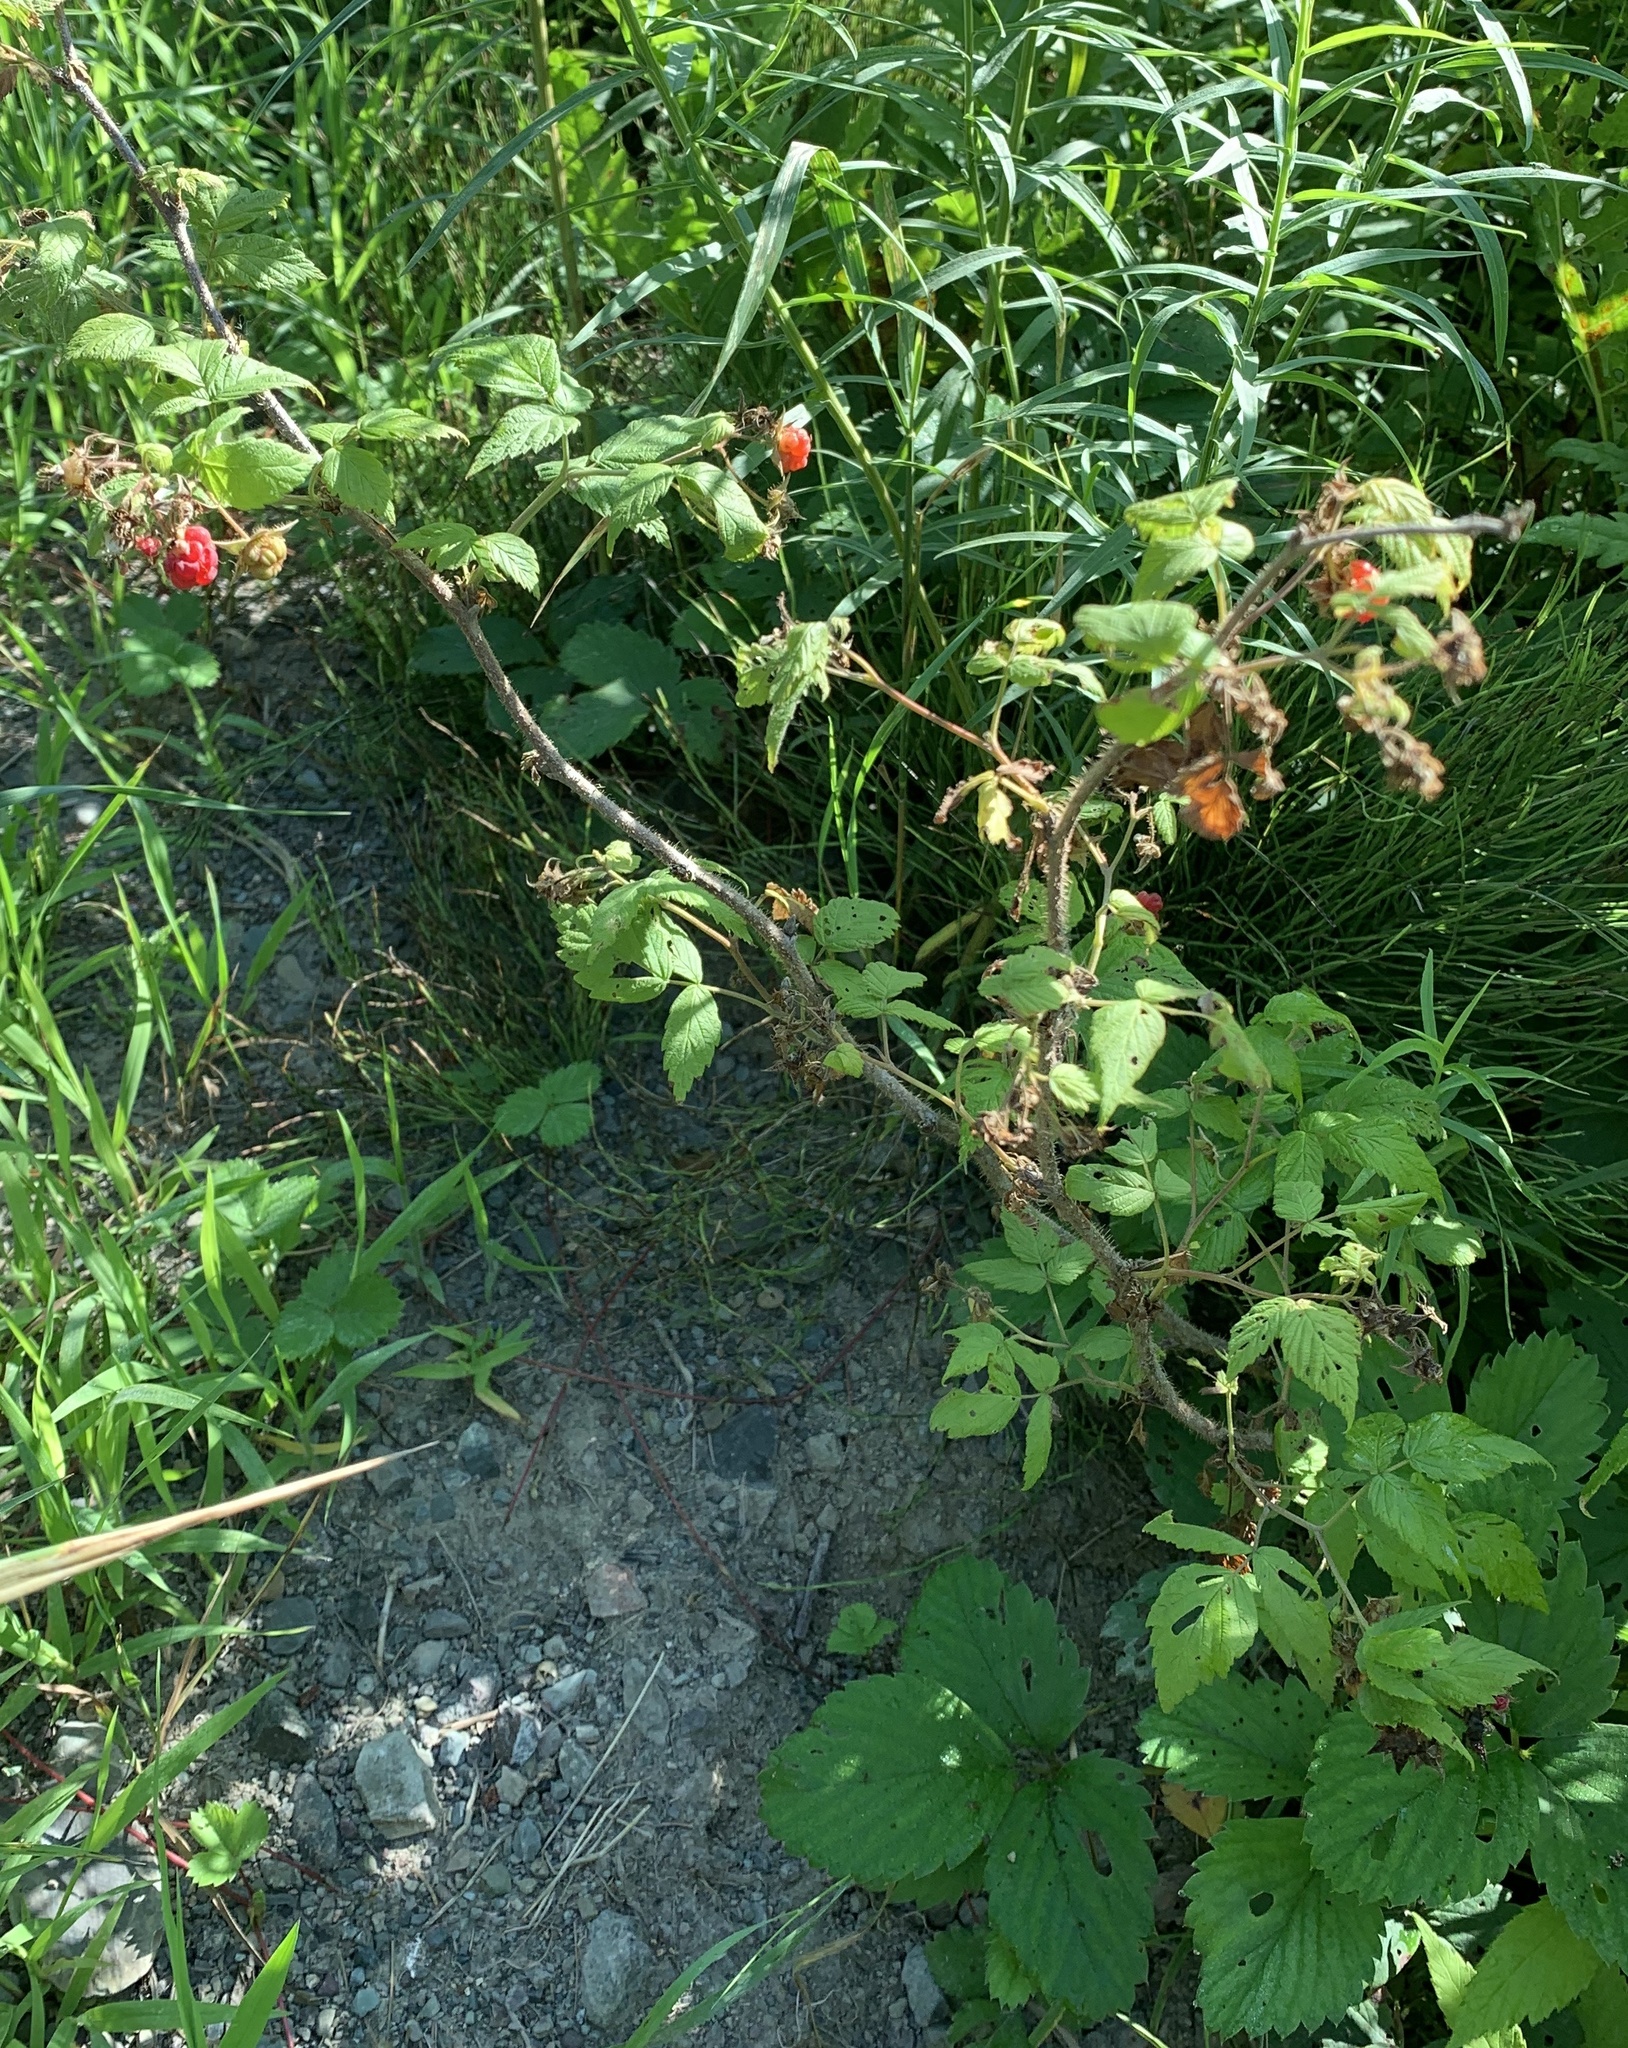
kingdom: Plantae
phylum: Tracheophyta
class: Magnoliopsida
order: Rosales
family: Rosaceae
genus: Rubus
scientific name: Rubus idaeus
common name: Raspberry
